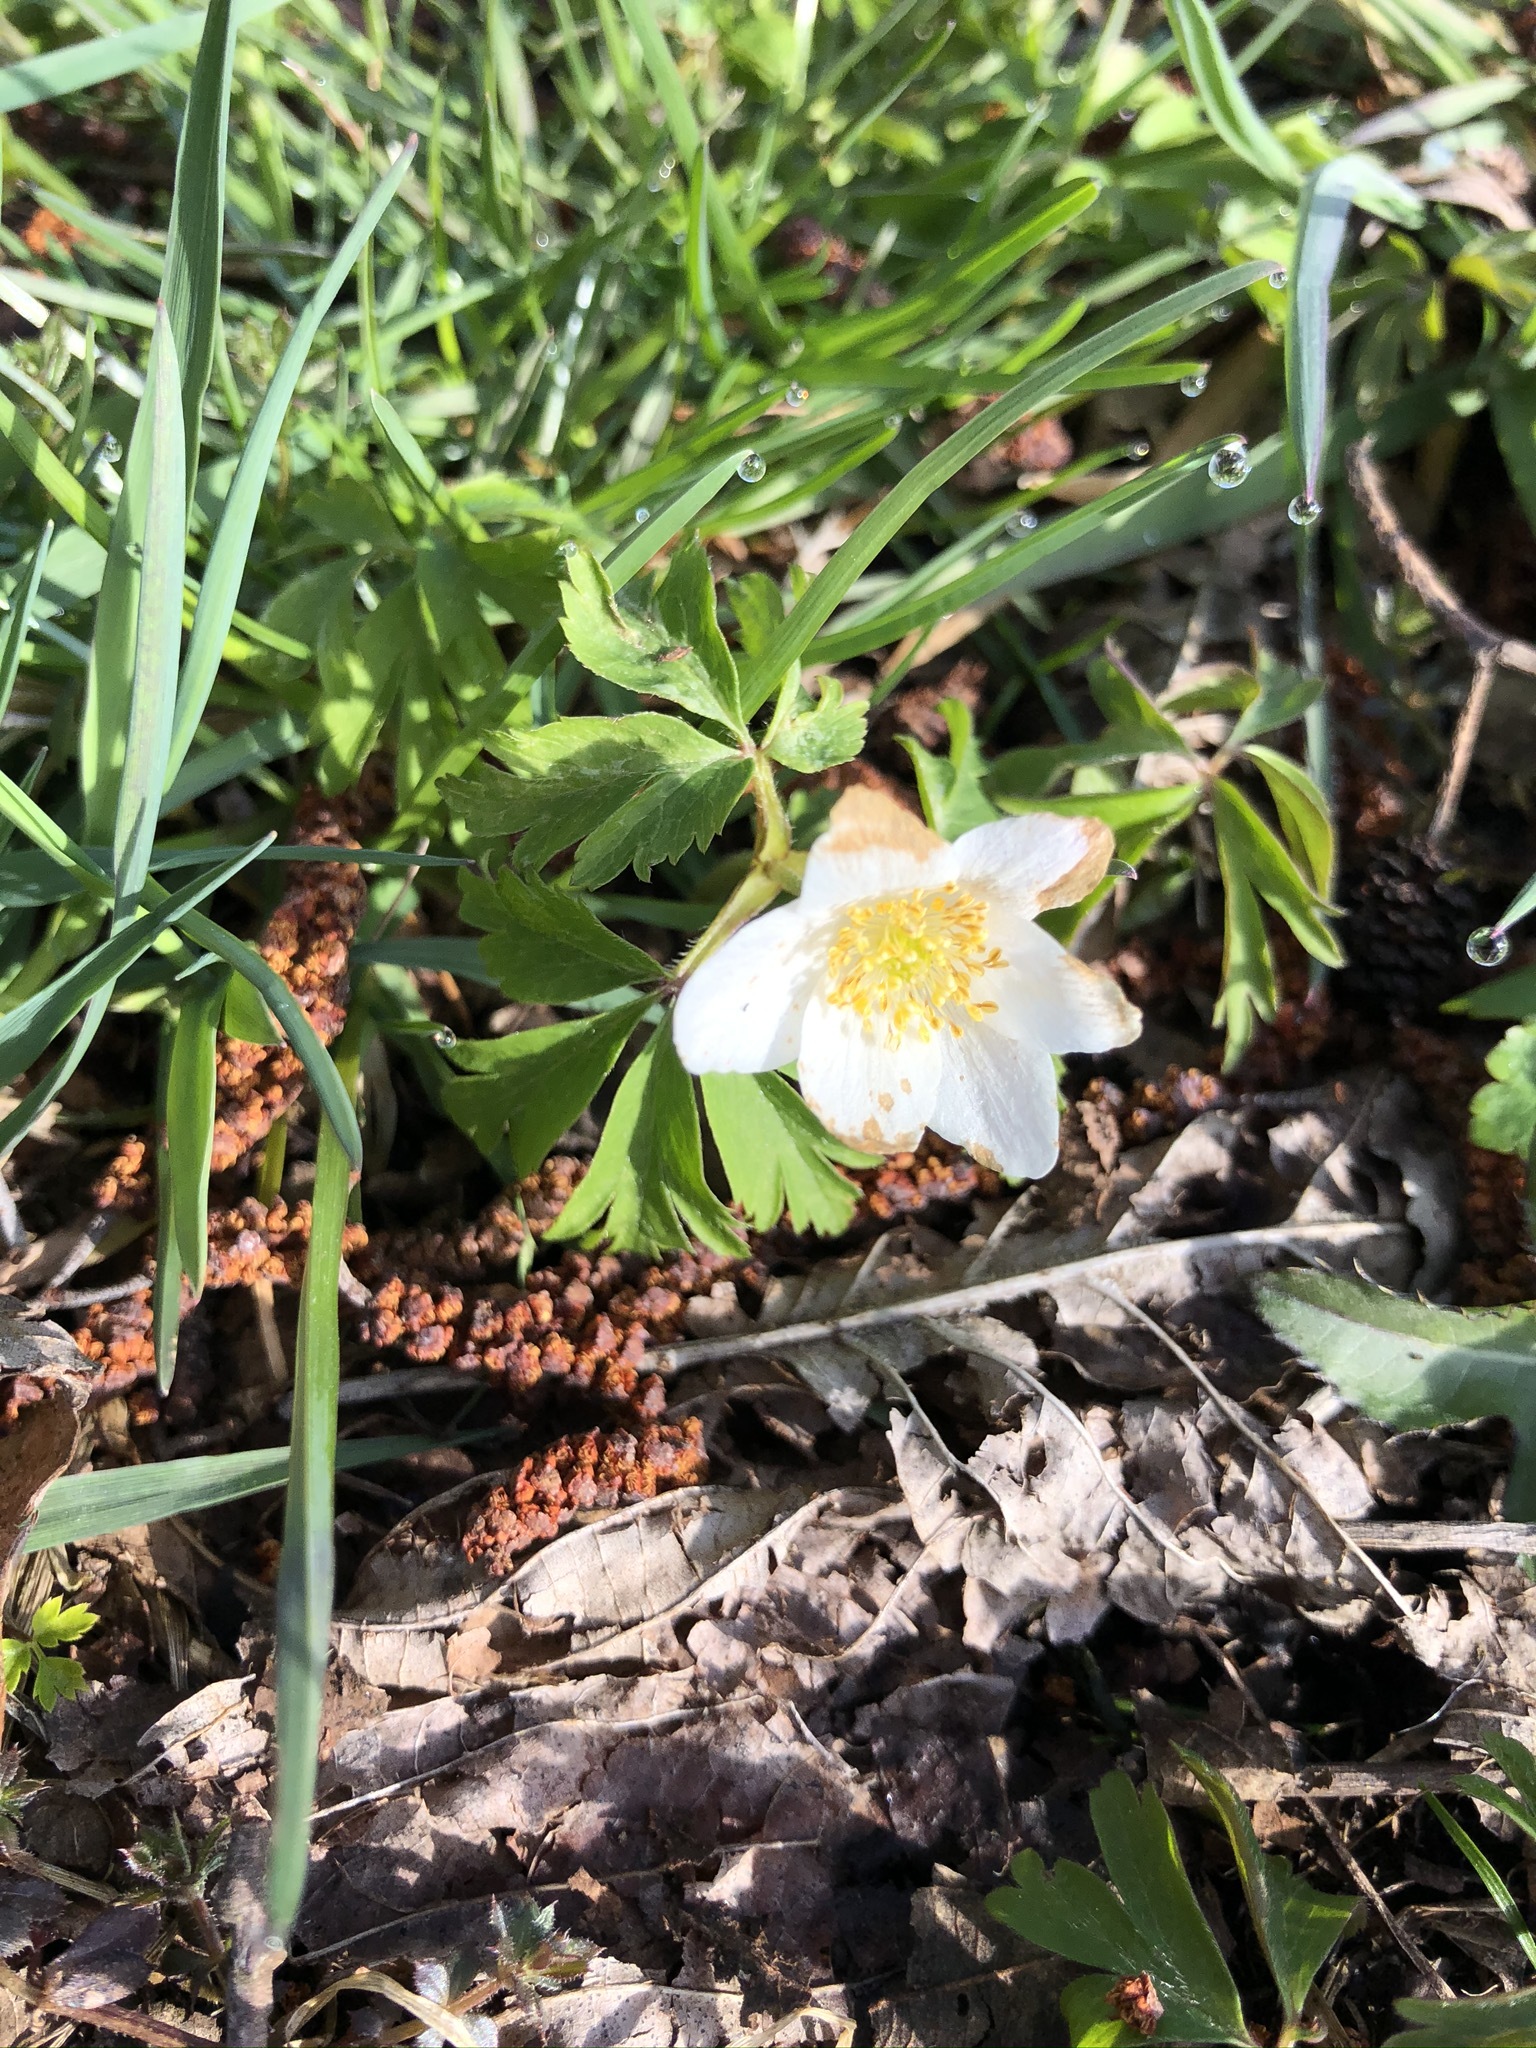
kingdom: Plantae
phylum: Tracheophyta
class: Magnoliopsida
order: Ranunculales
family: Ranunculaceae
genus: Anemone
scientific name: Anemone nemorosa
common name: Wood anemone
